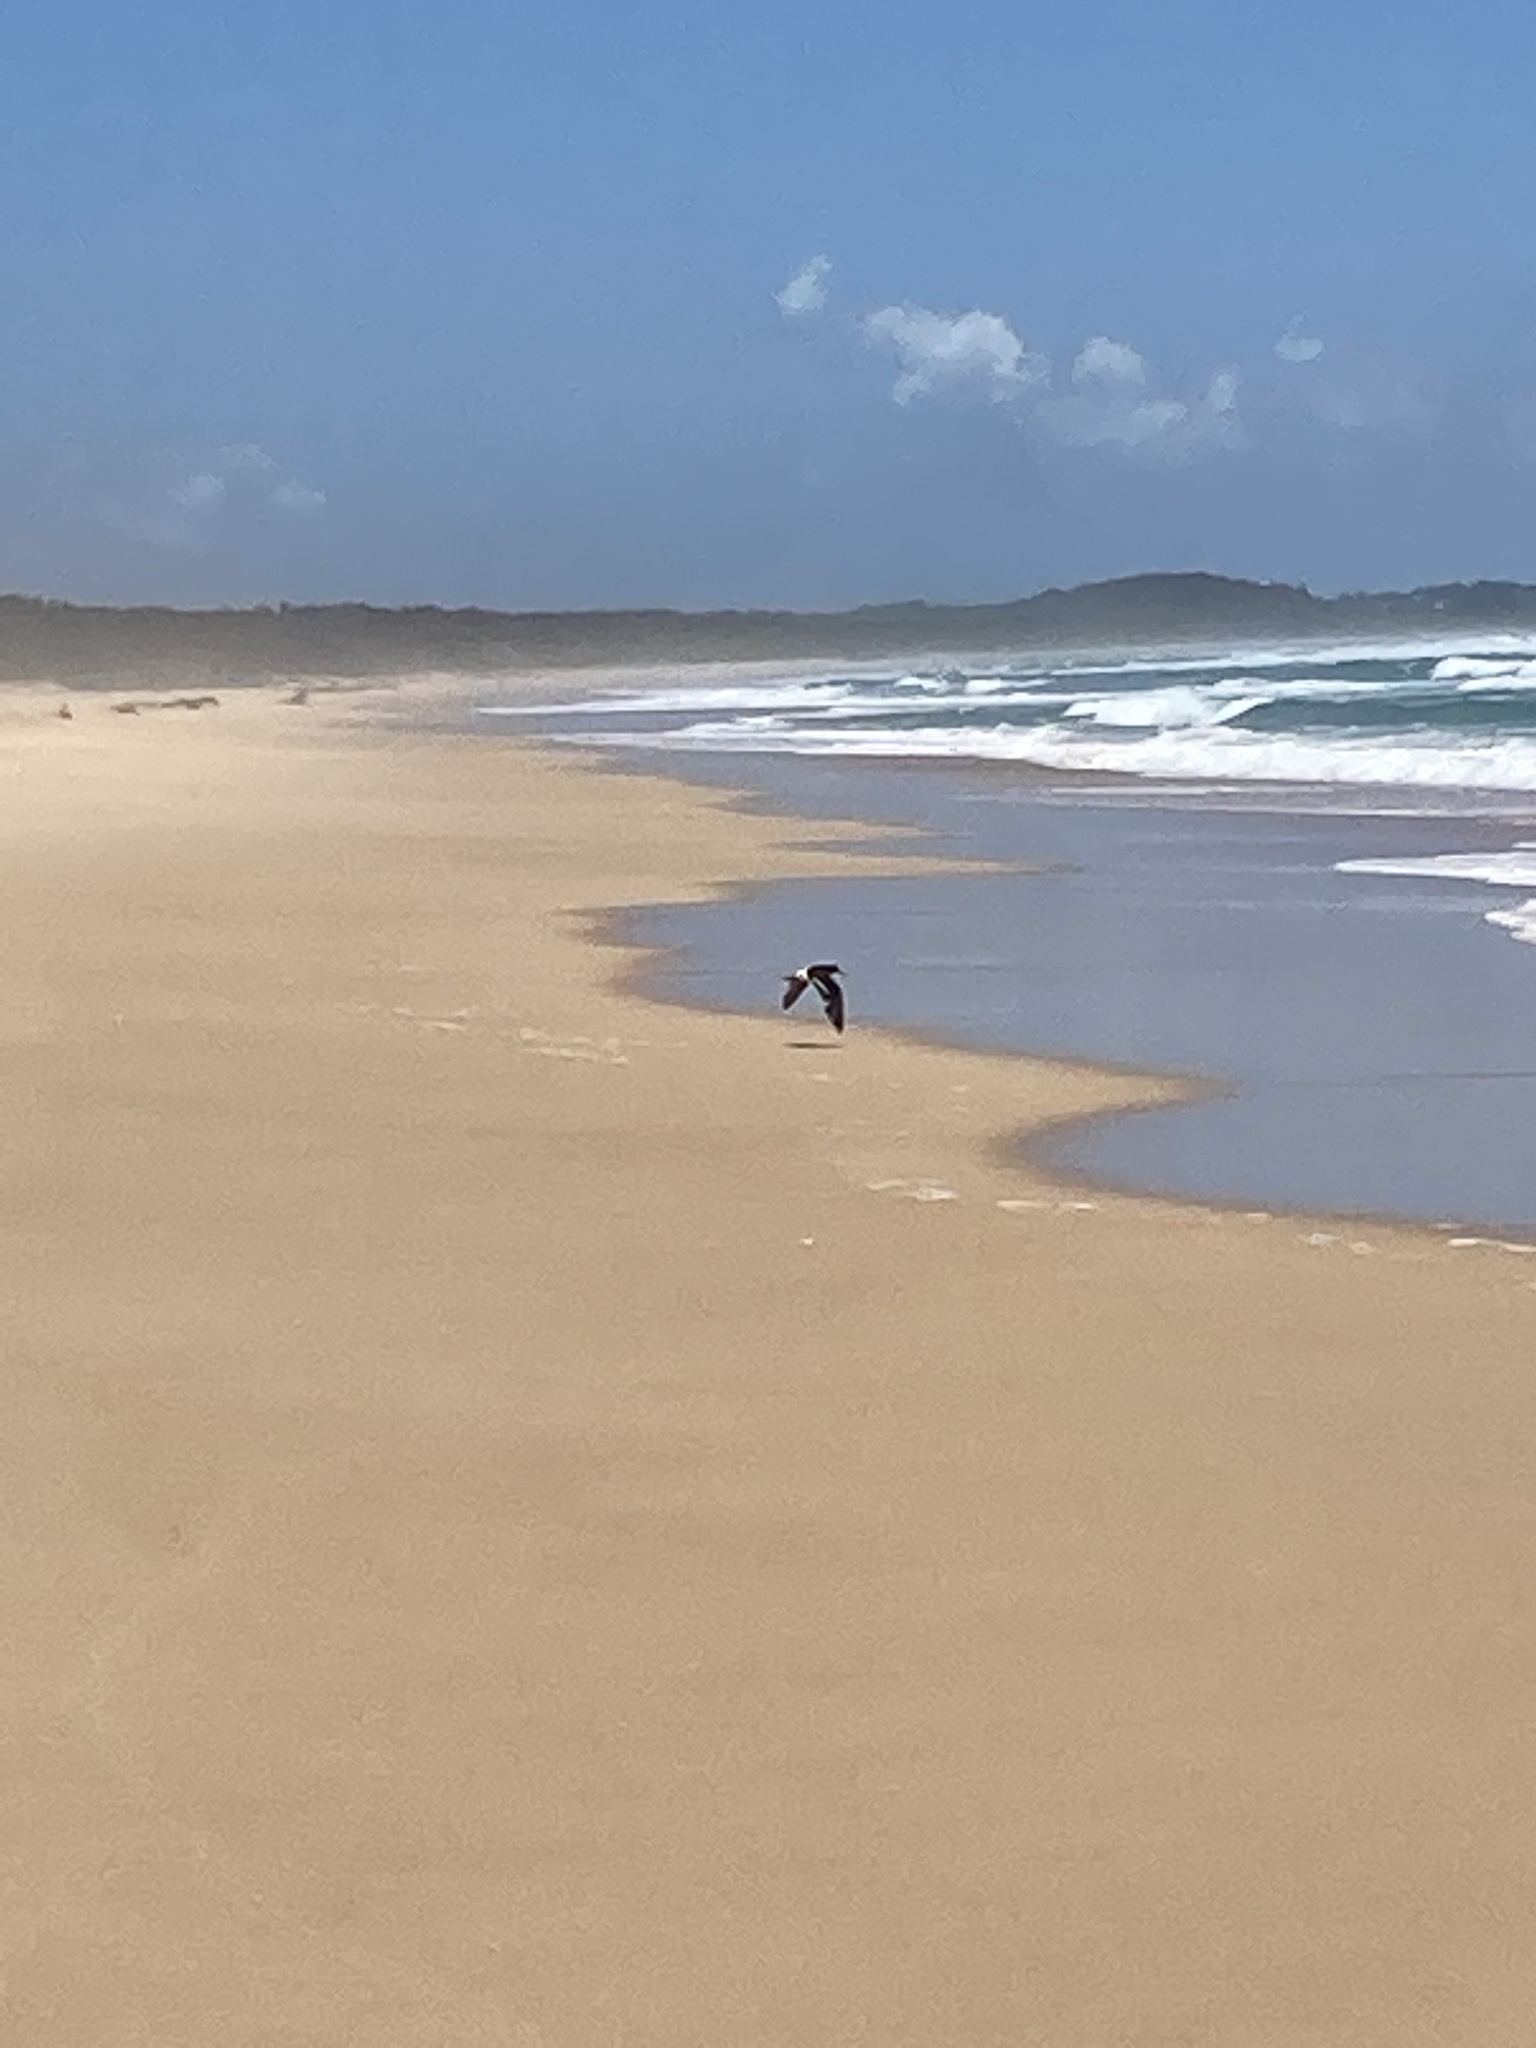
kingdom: Animalia
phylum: Chordata
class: Aves
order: Charadriiformes
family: Haematopodidae
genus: Haematopus
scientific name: Haematopus longirostris
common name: Pied oystercatcher
